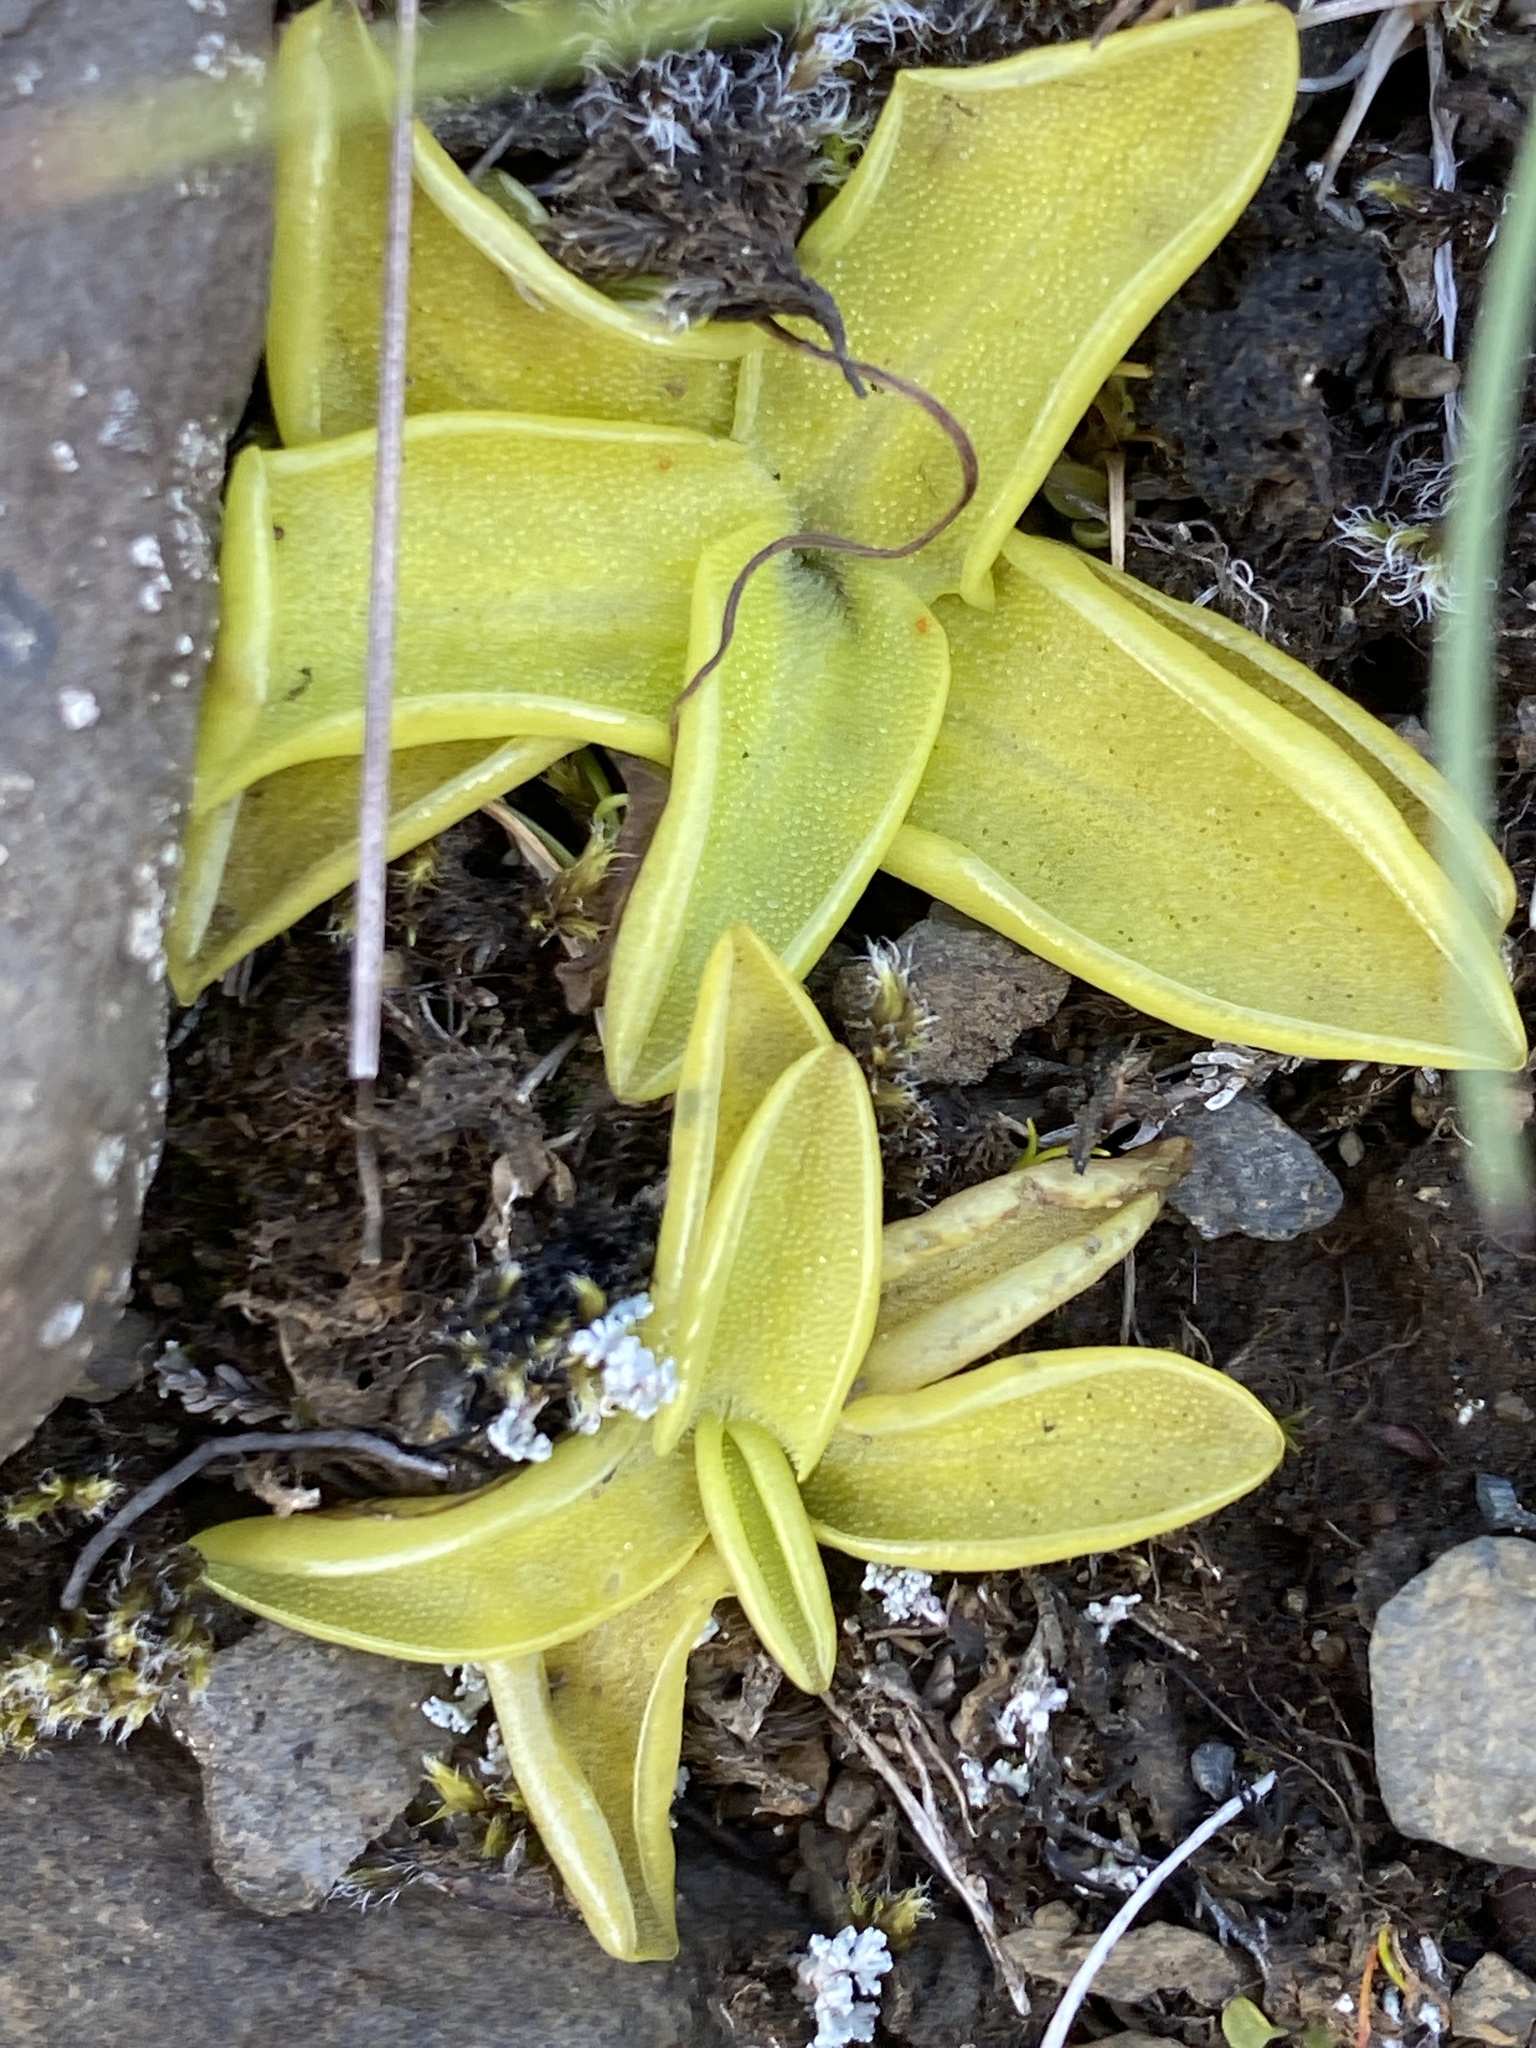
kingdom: Plantae
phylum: Tracheophyta
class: Magnoliopsida
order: Lamiales
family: Lentibulariaceae
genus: Pinguicula
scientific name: Pinguicula vulgaris
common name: Common butterwort
